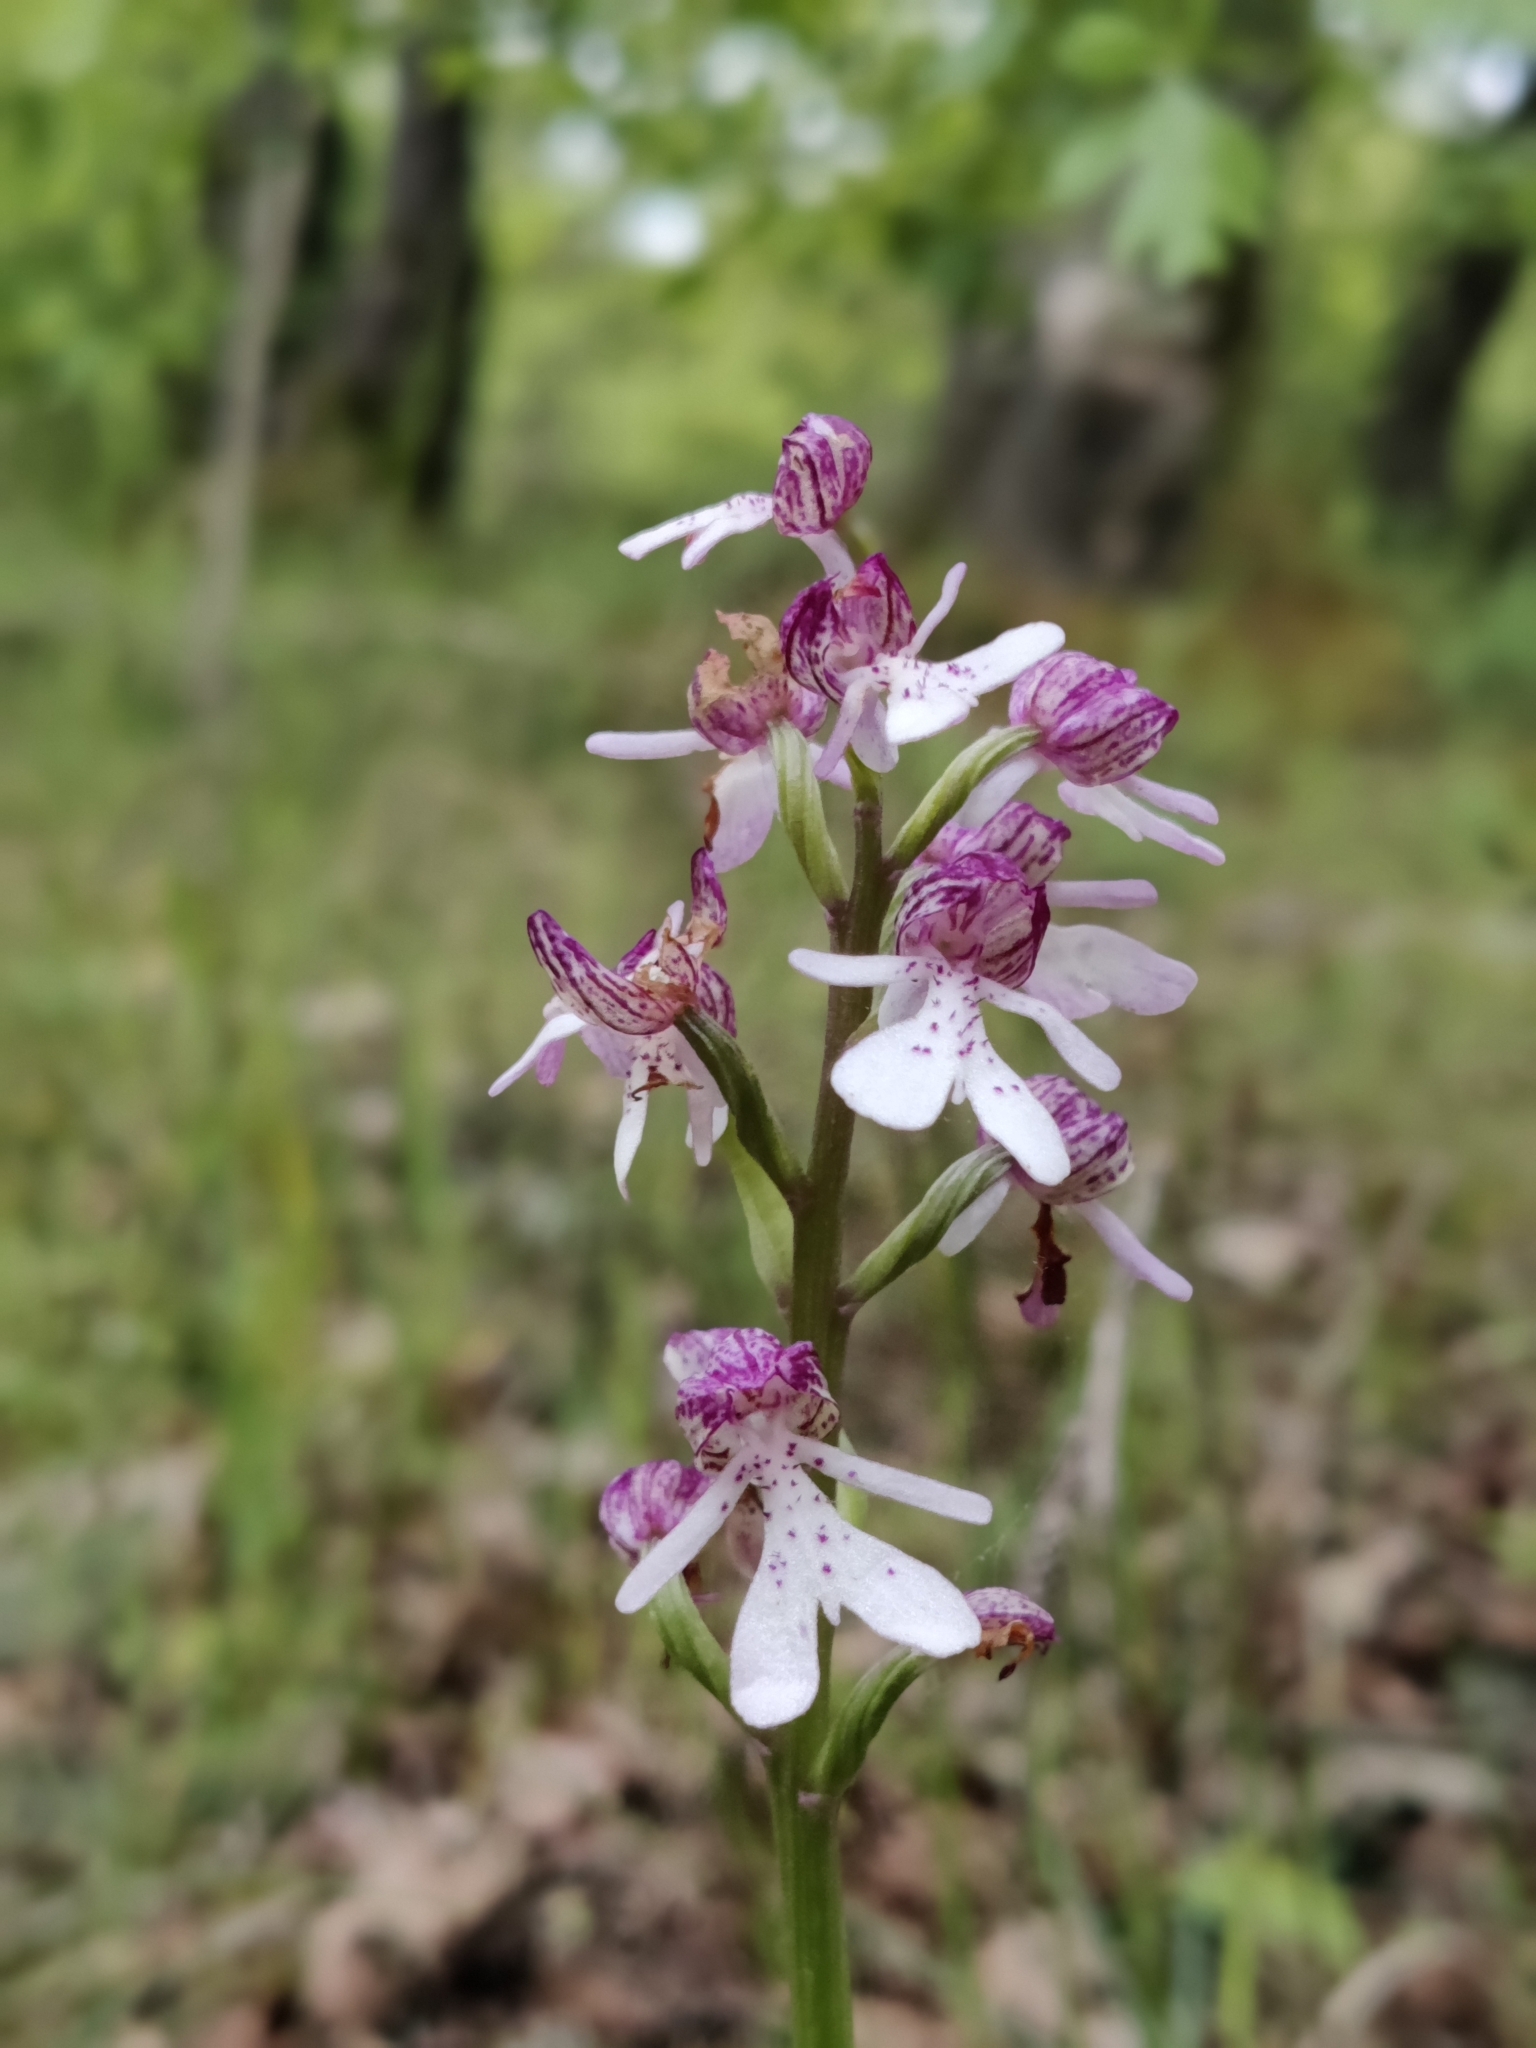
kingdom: Plantae
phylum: Tracheophyta
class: Liliopsida
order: Asparagales
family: Orchidaceae
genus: Orchis
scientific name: Orchis purpurea
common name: Lady orchid
